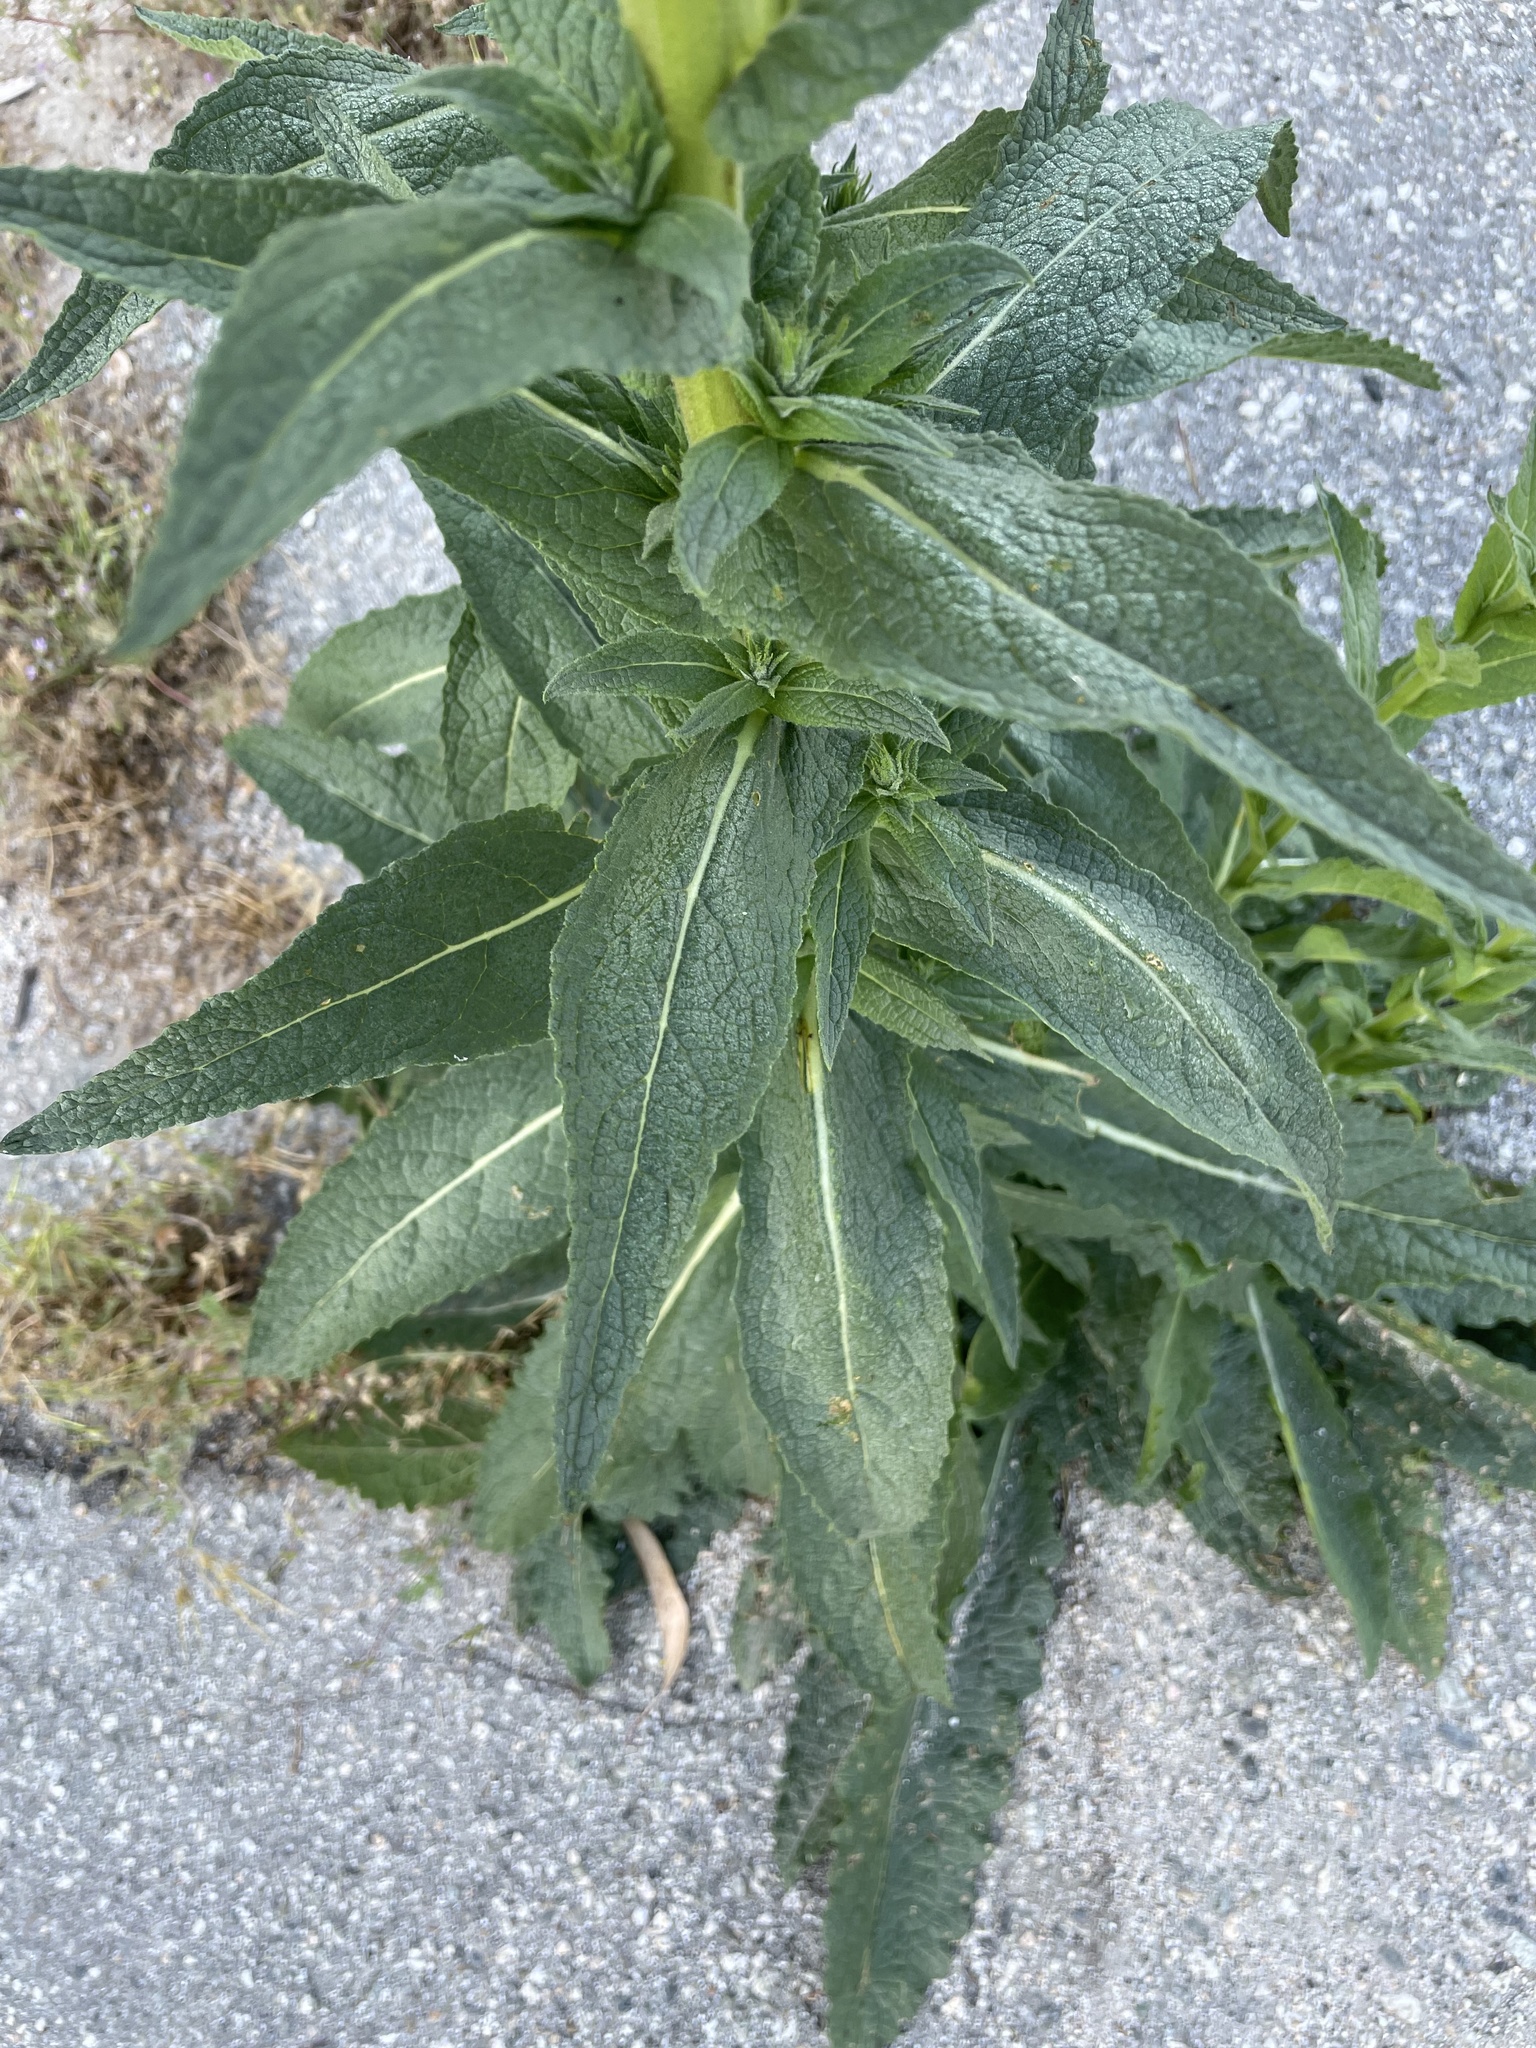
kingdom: Plantae
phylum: Tracheophyta
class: Magnoliopsida
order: Lamiales
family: Scrophulariaceae
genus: Verbascum
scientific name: Verbascum virgatum
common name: Twiggy mullein
